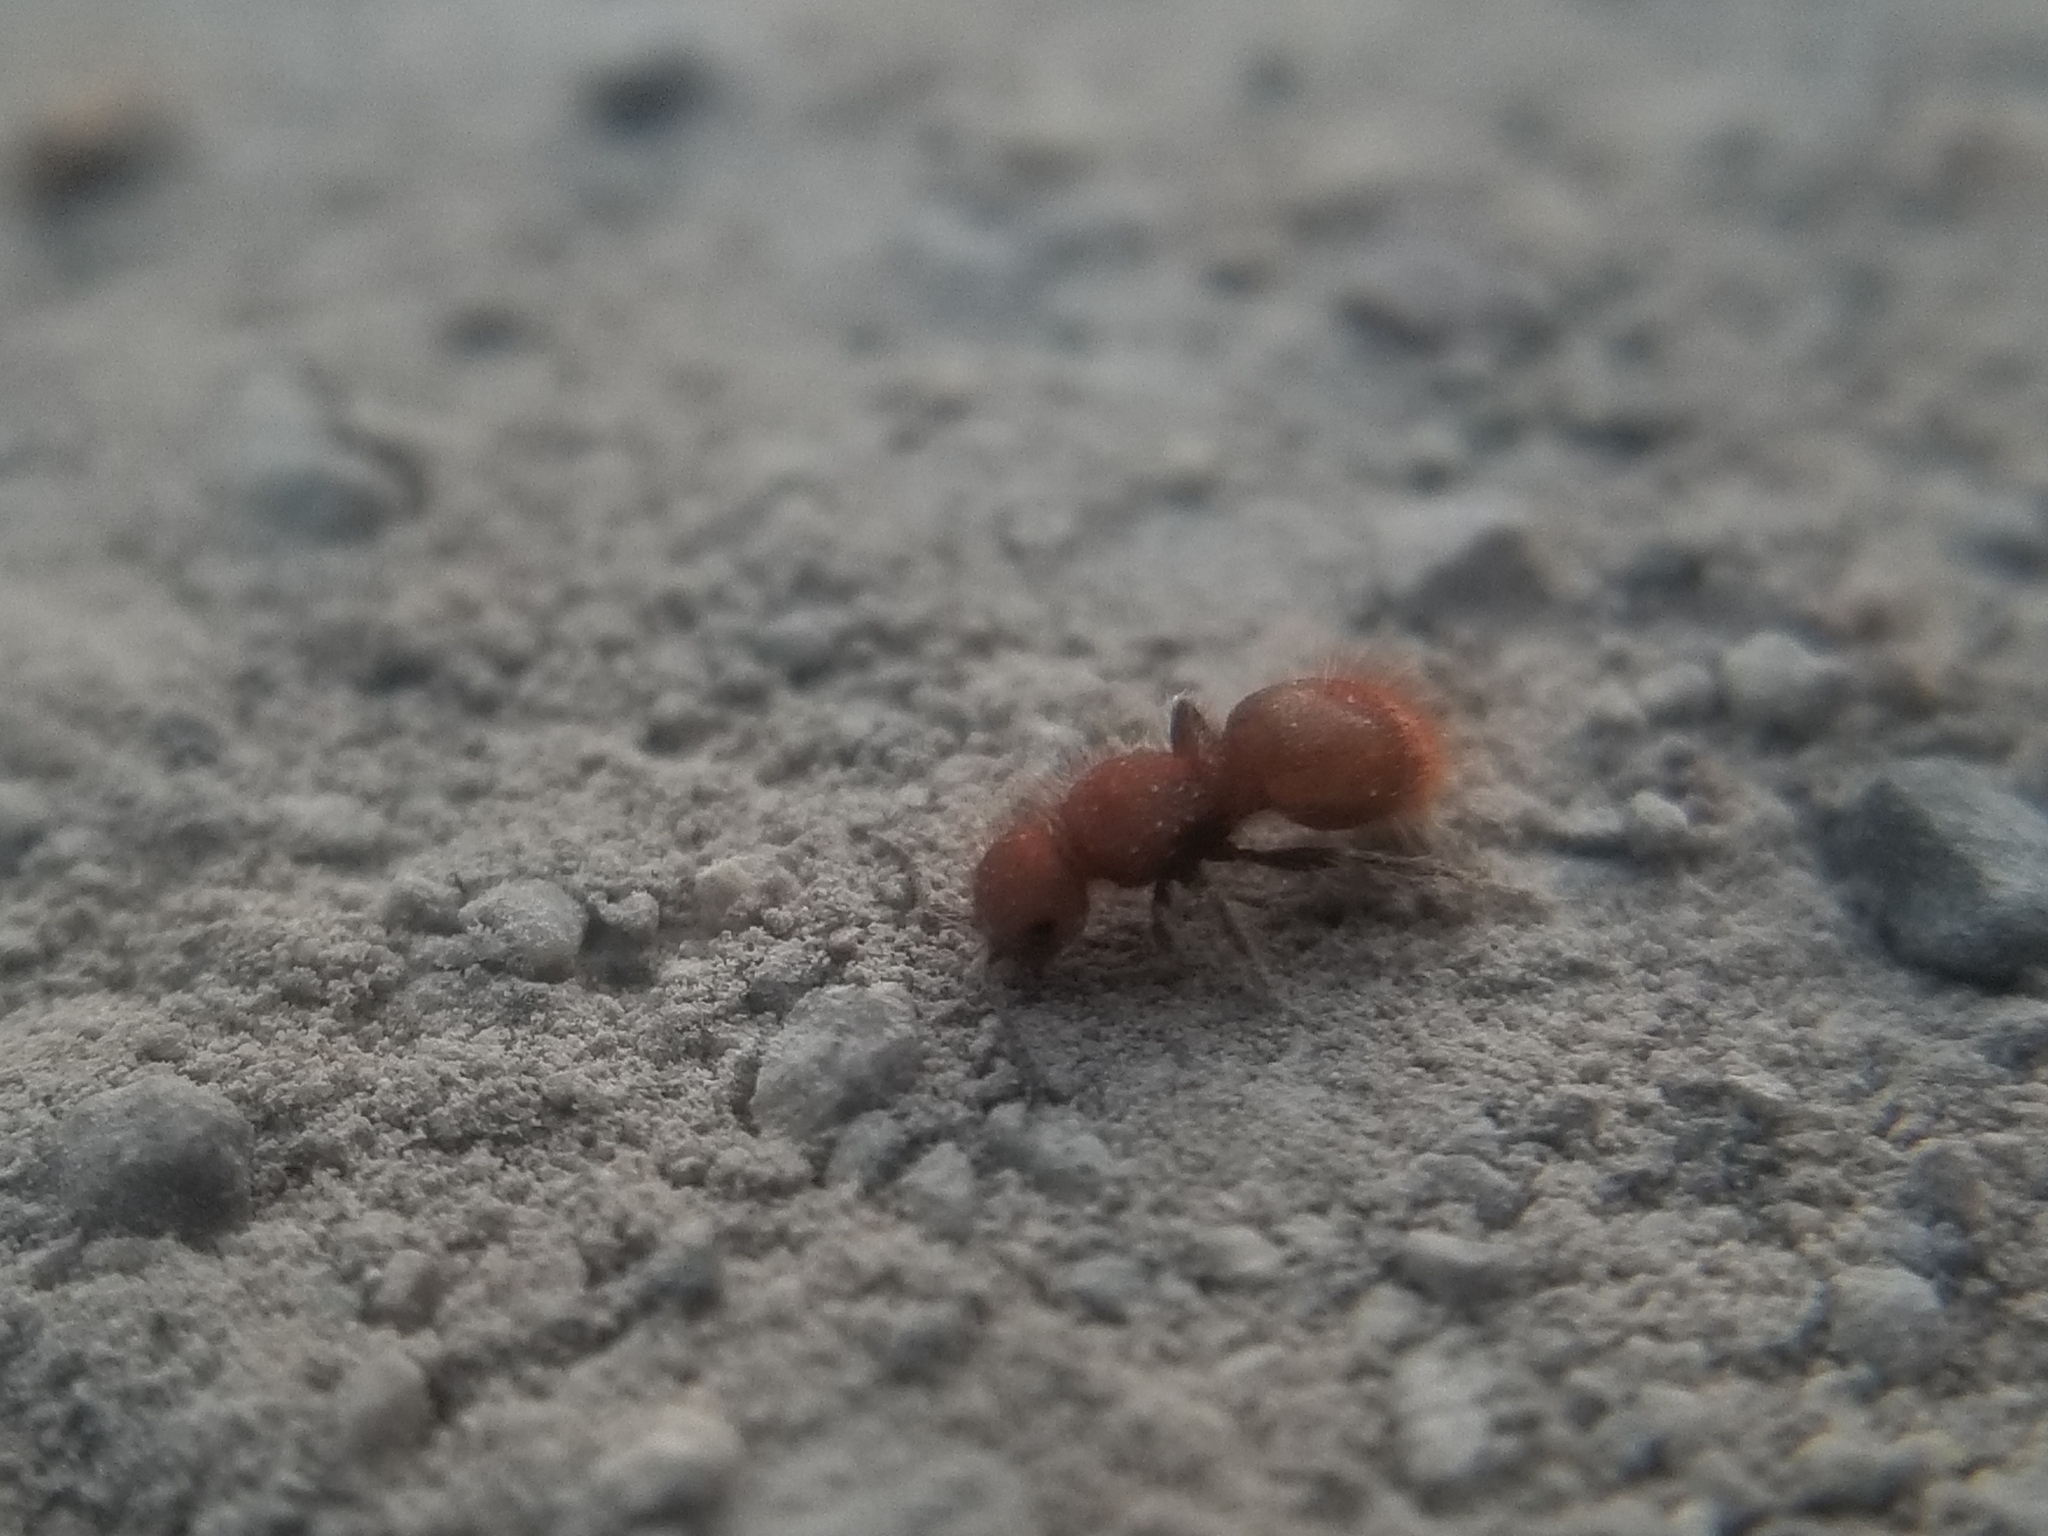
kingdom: Animalia
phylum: Arthropoda
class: Insecta
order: Hymenoptera
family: Mutillidae
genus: Sphaeropthalma
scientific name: Sphaeropthalma unicolor
